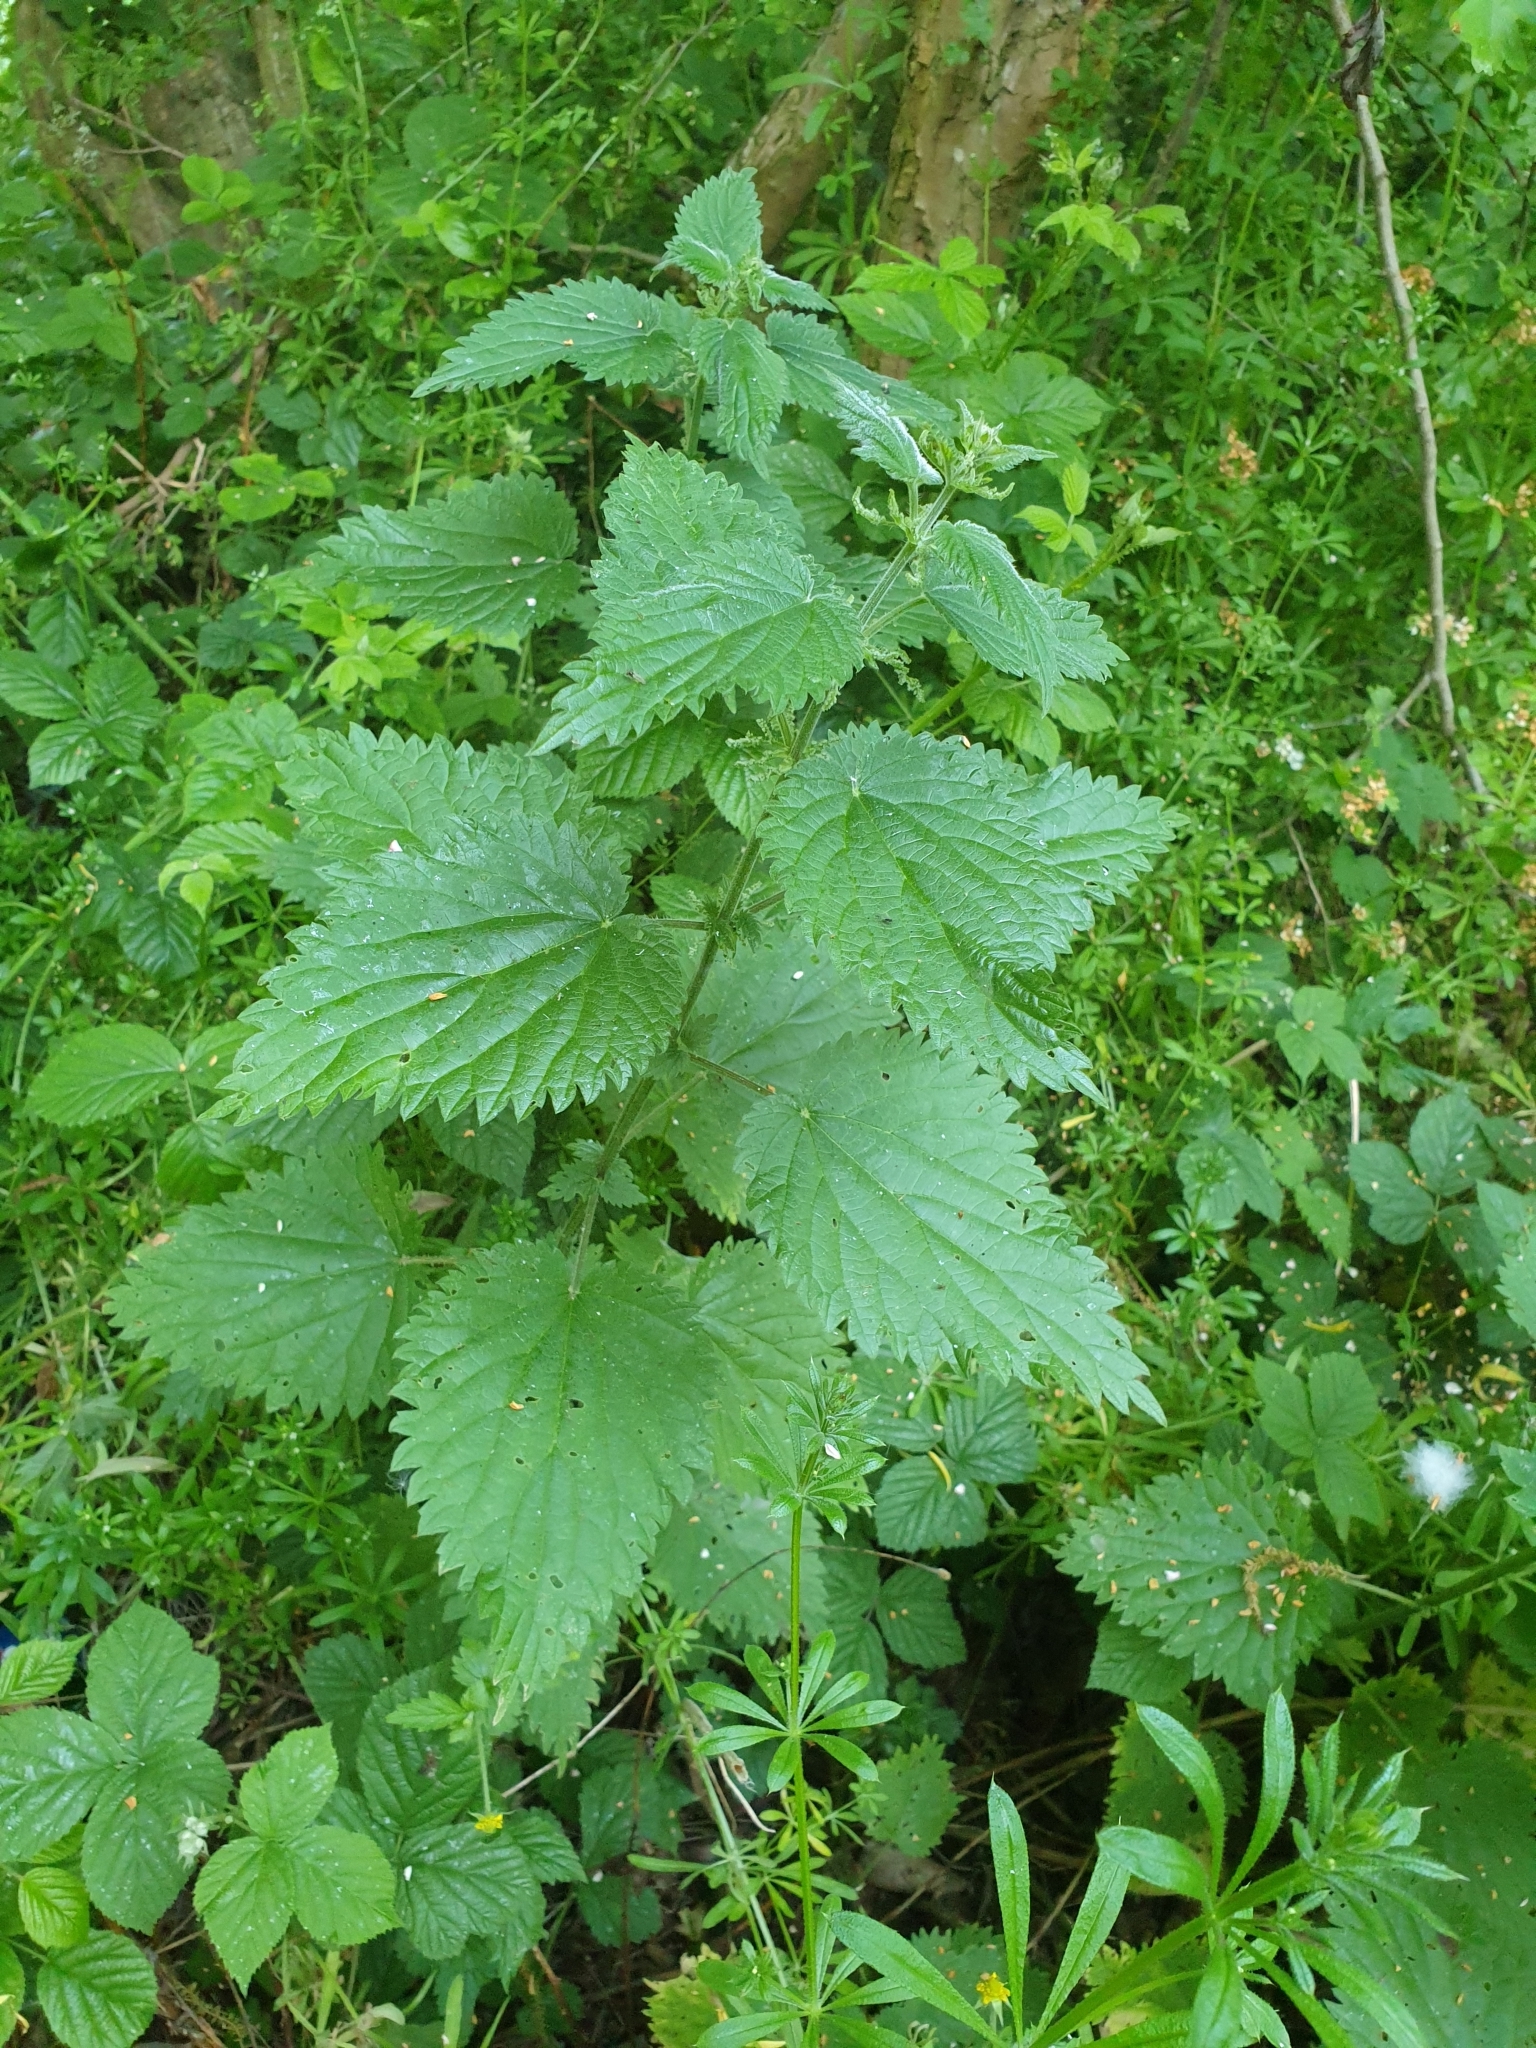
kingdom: Plantae
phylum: Tracheophyta
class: Magnoliopsida
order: Rosales
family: Urticaceae
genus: Urtica
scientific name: Urtica dioica
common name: Common nettle
